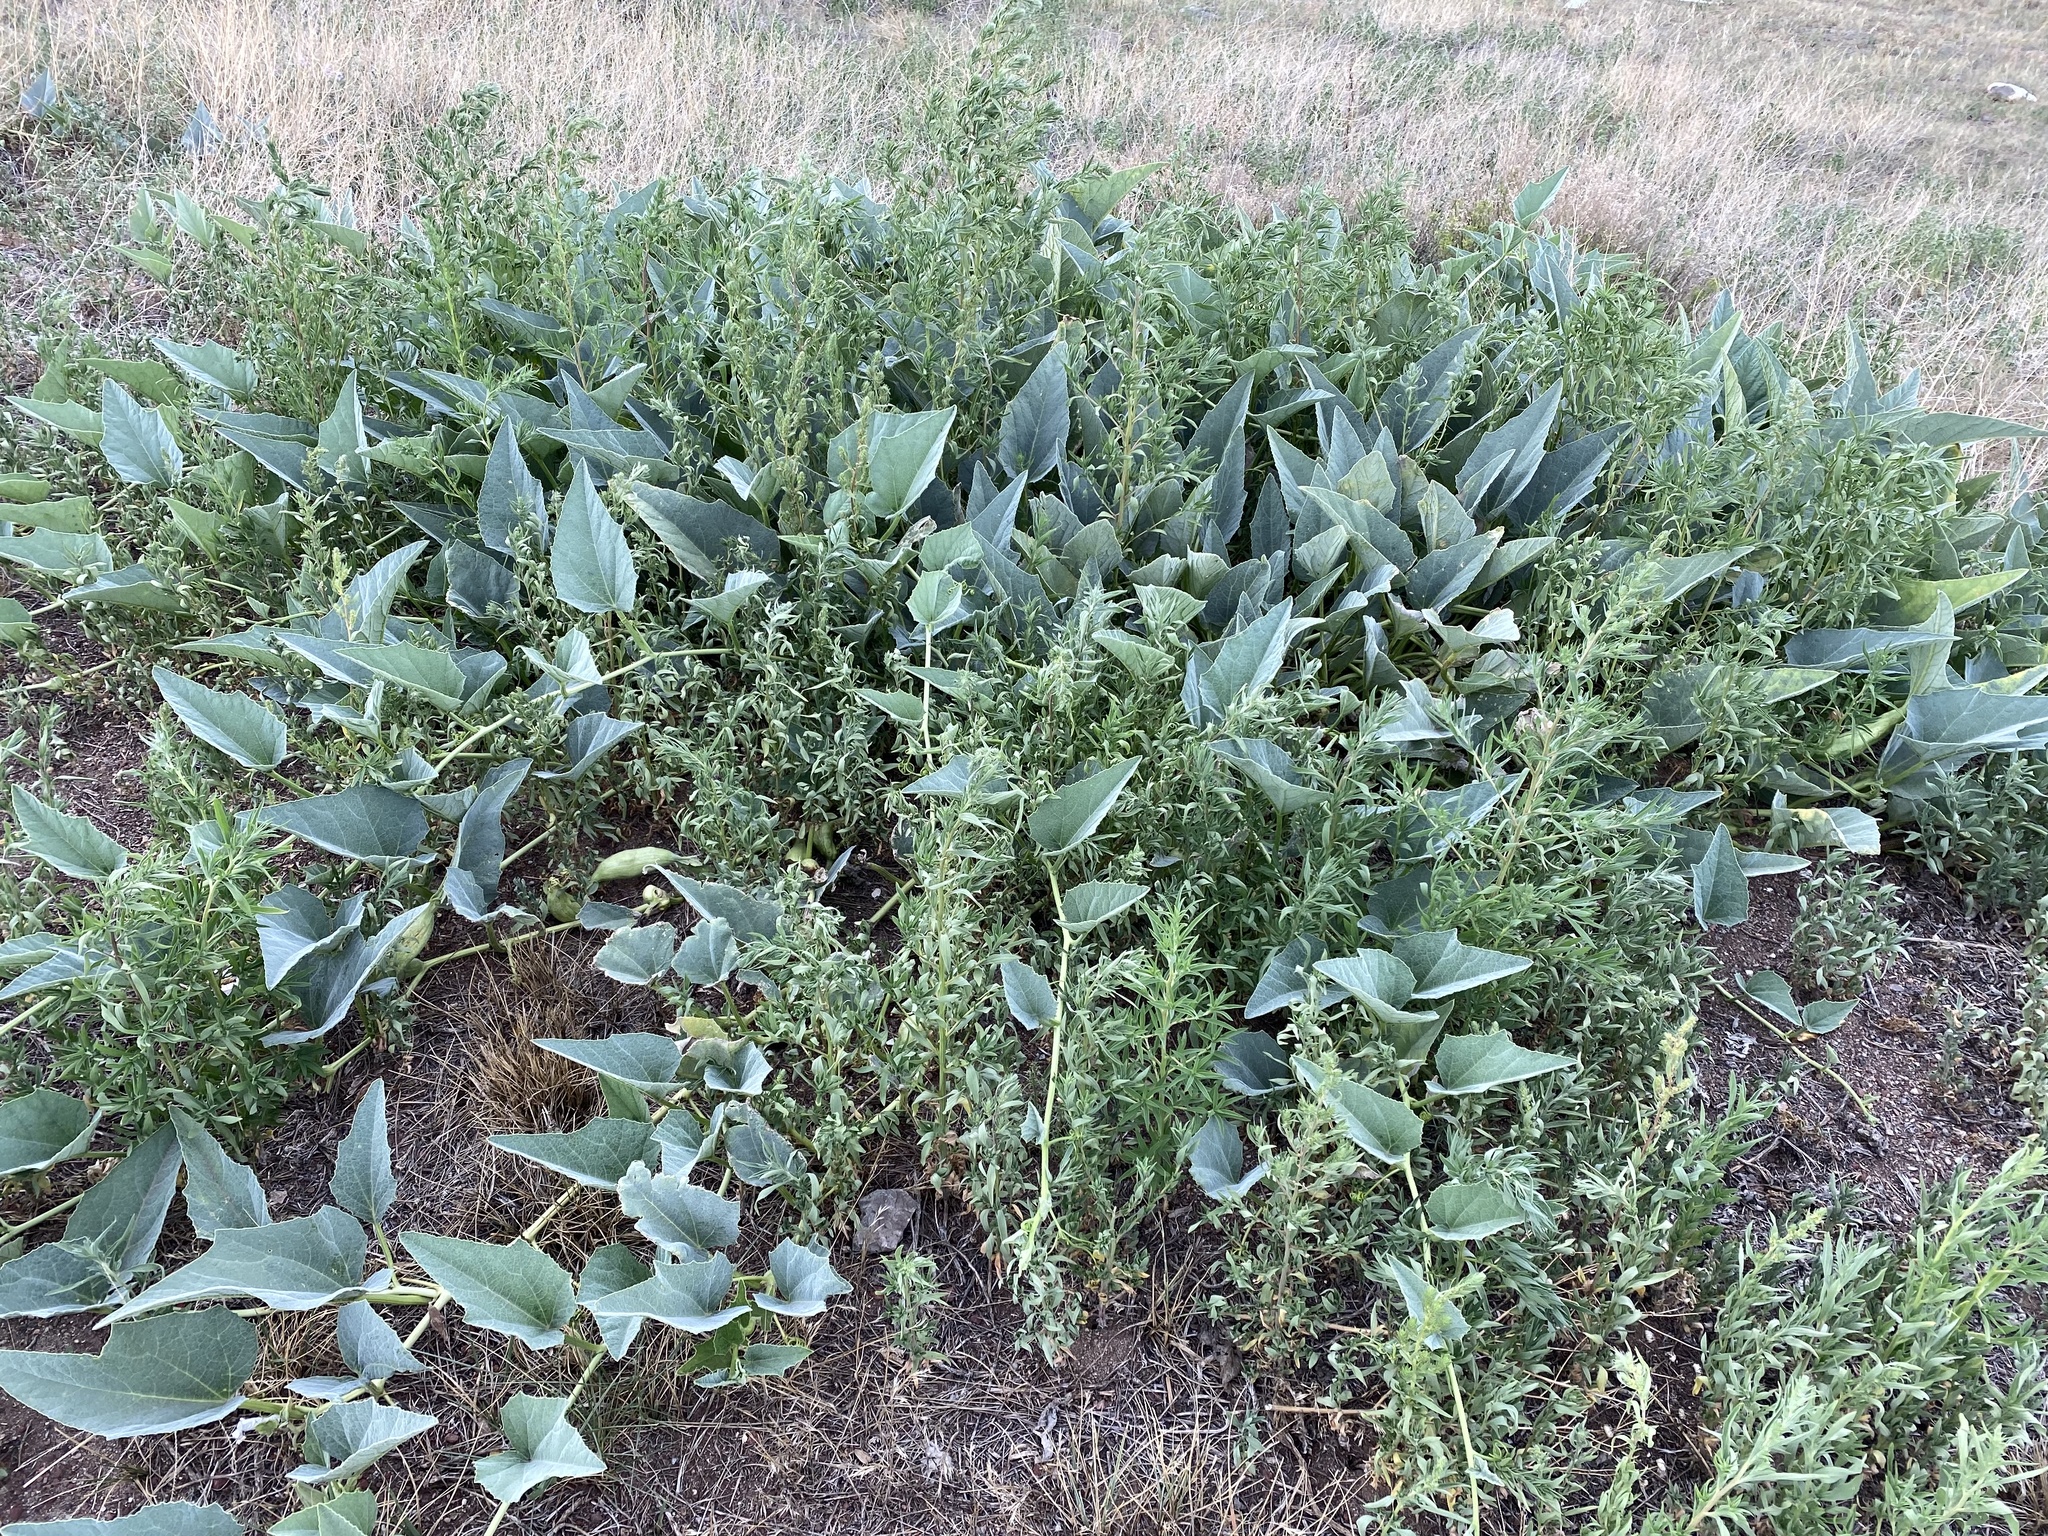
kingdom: Plantae
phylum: Tracheophyta
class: Magnoliopsida
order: Cucurbitales
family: Cucurbitaceae
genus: Cucurbita
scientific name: Cucurbita foetidissima
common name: Buffalo gourd
